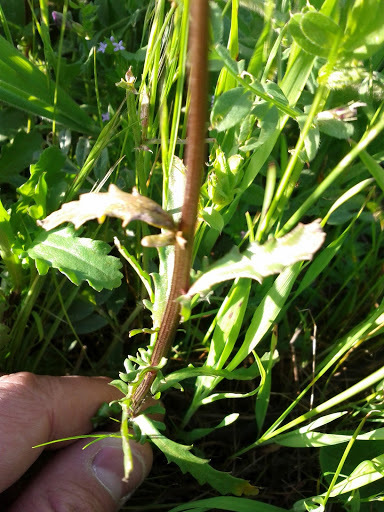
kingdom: Plantae
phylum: Tracheophyta
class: Magnoliopsida
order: Asterales
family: Asteraceae
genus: Leucanthemum
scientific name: Leucanthemum vulgare
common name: Oxeye daisy
